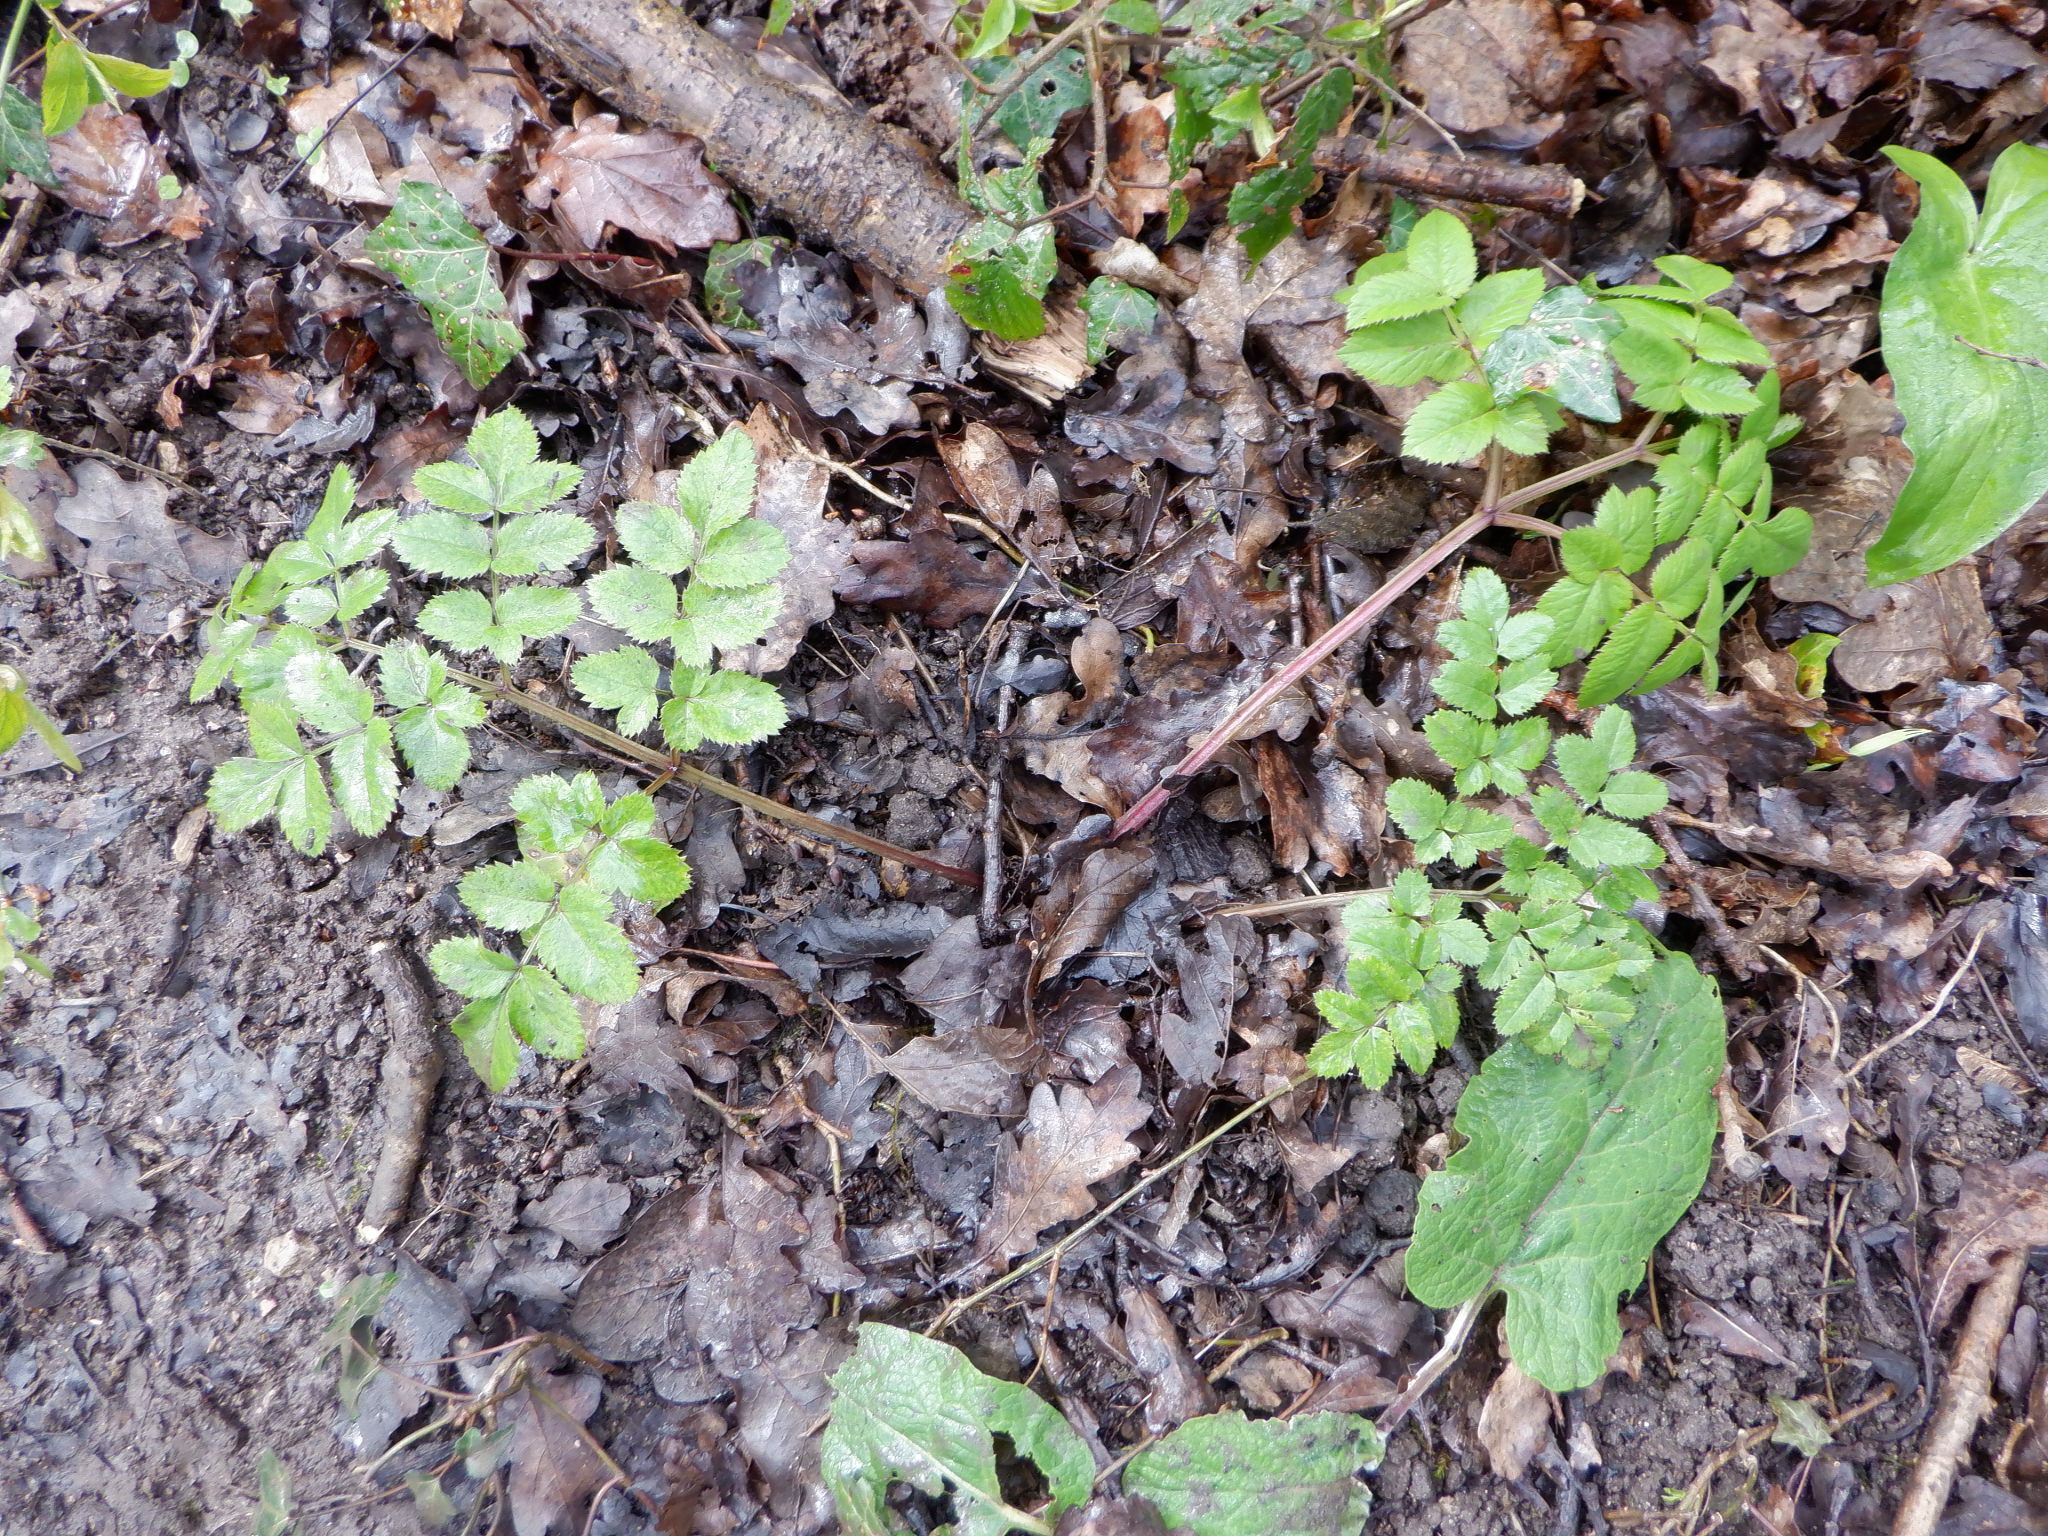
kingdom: Plantae
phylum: Tracheophyta
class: Magnoliopsida
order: Apiales
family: Apiaceae
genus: Angelica
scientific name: Angelica sylvestris
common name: Wild angelica
